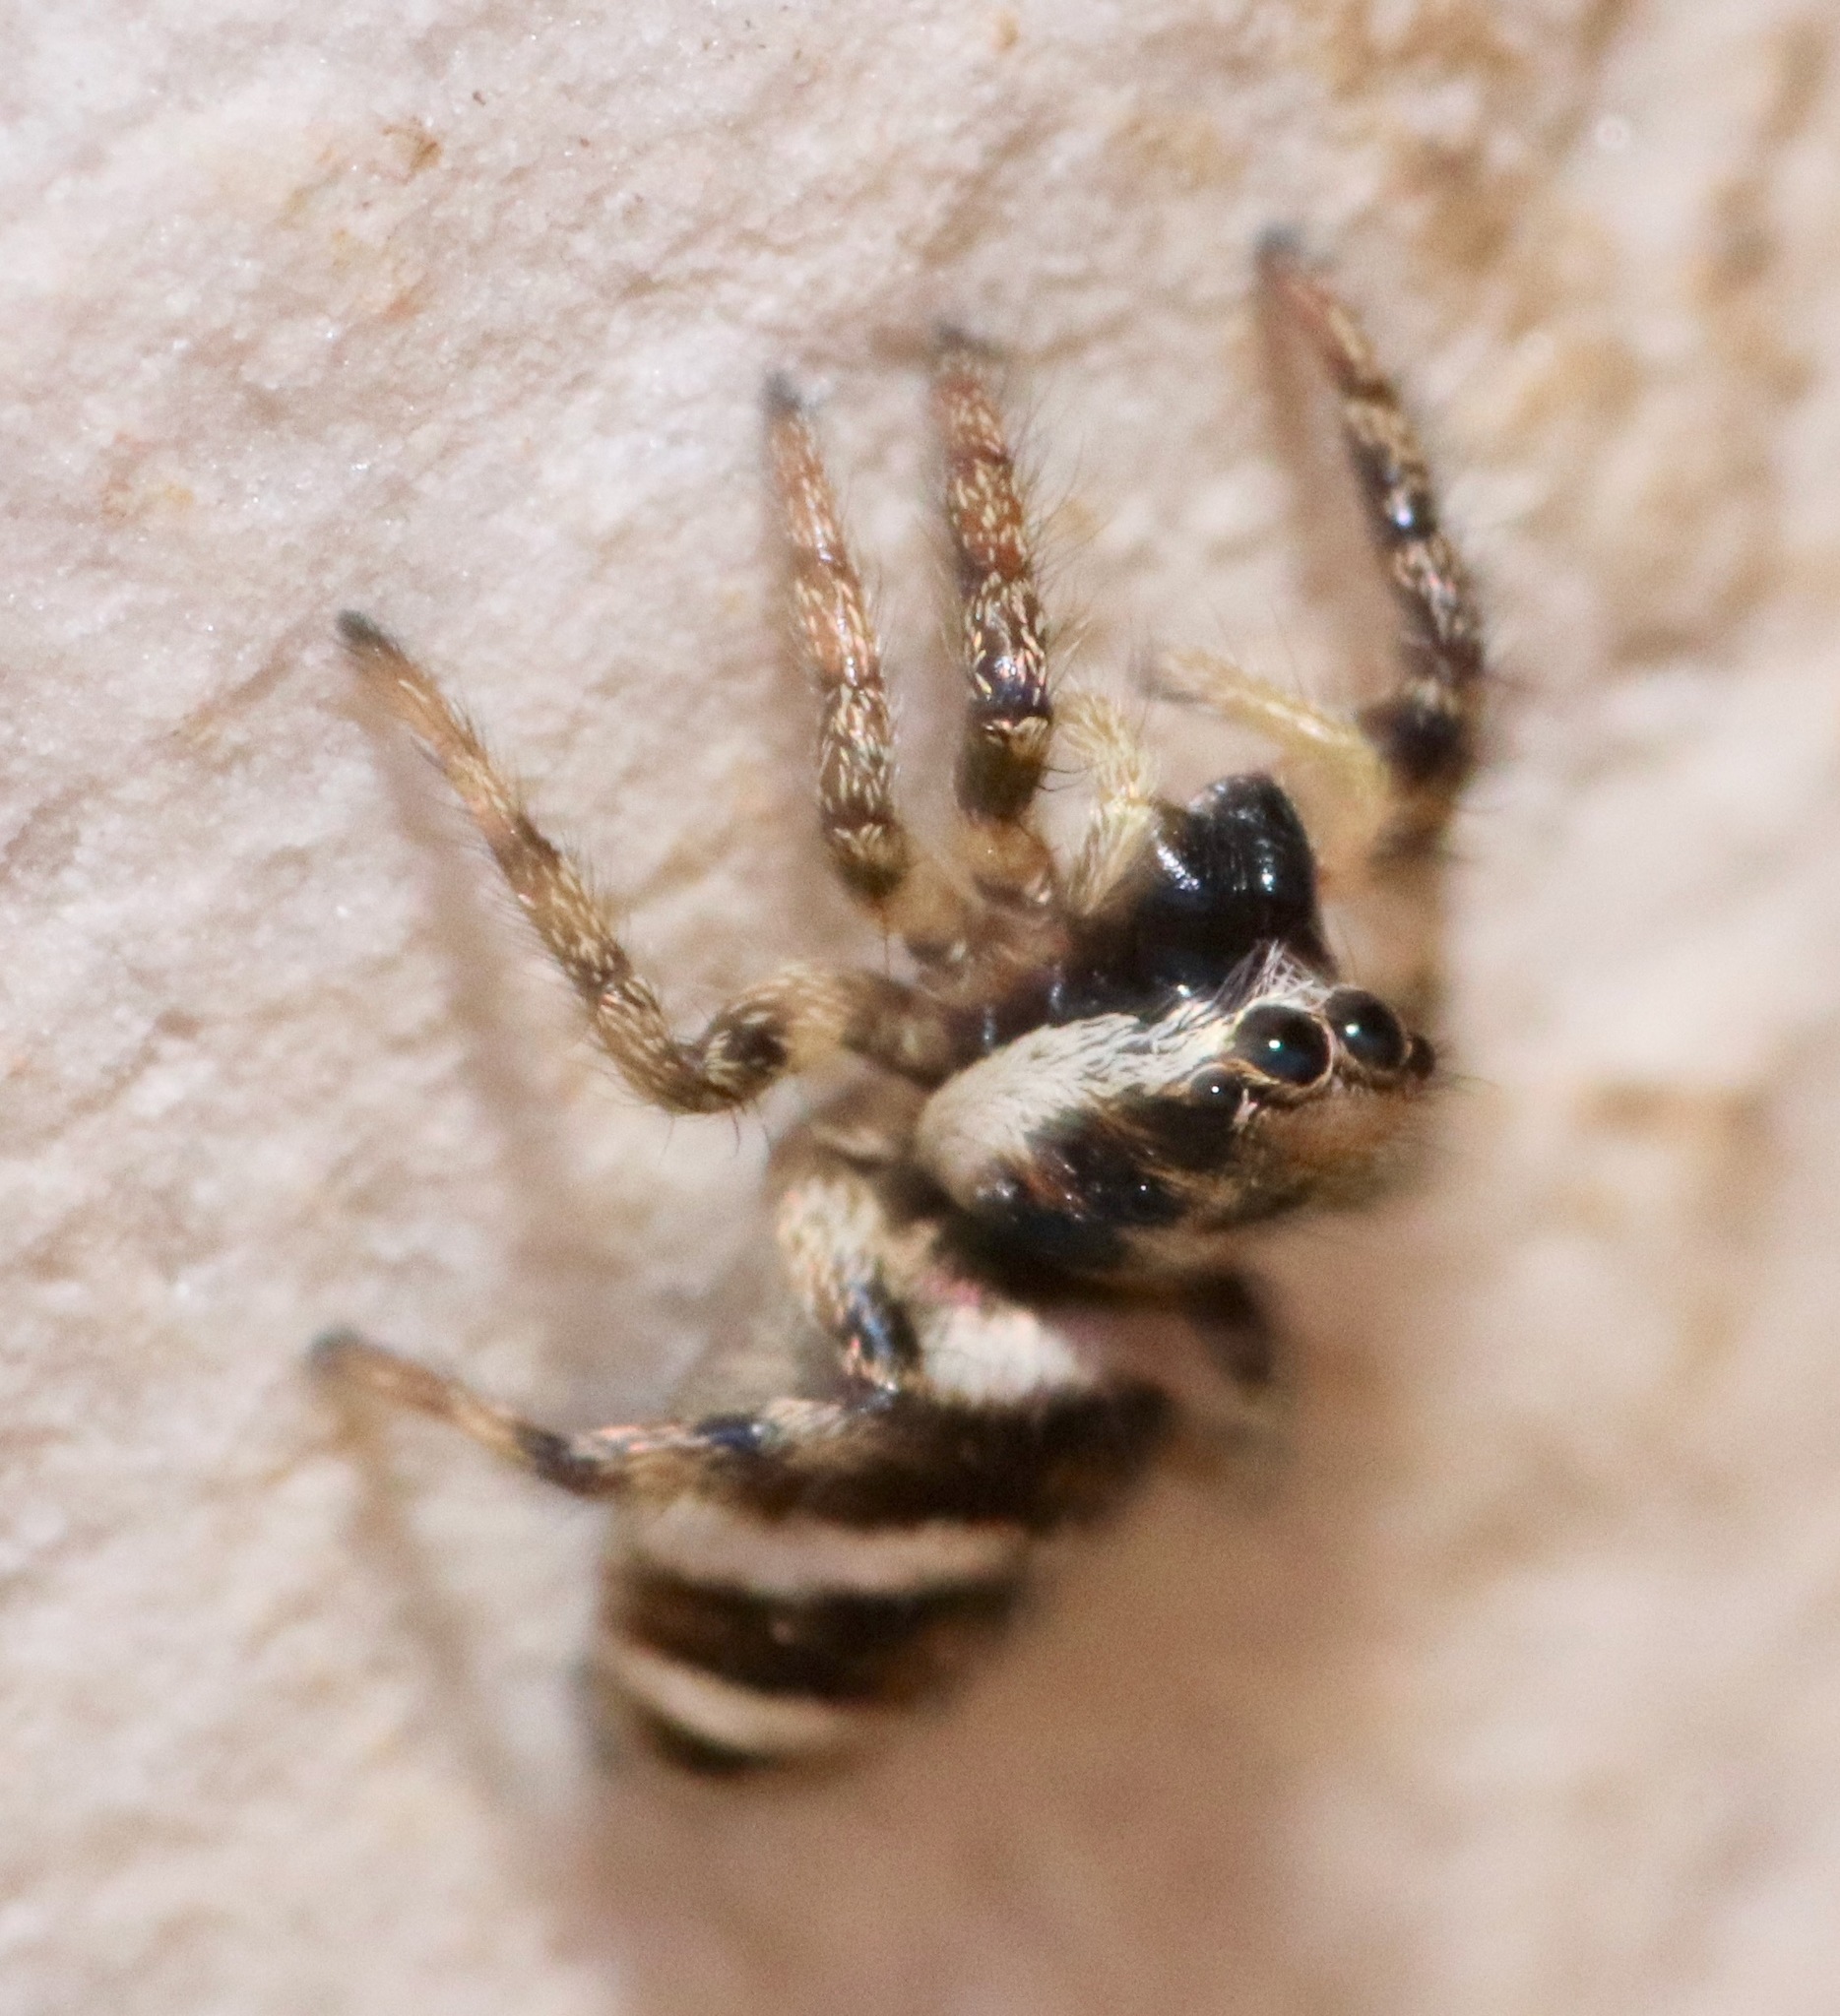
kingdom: Animalia
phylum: Arthropoda
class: Arachnida
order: Araneae
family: Salticidae
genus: Salticus
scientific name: Salticus scenicus
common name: Zebra jumper
